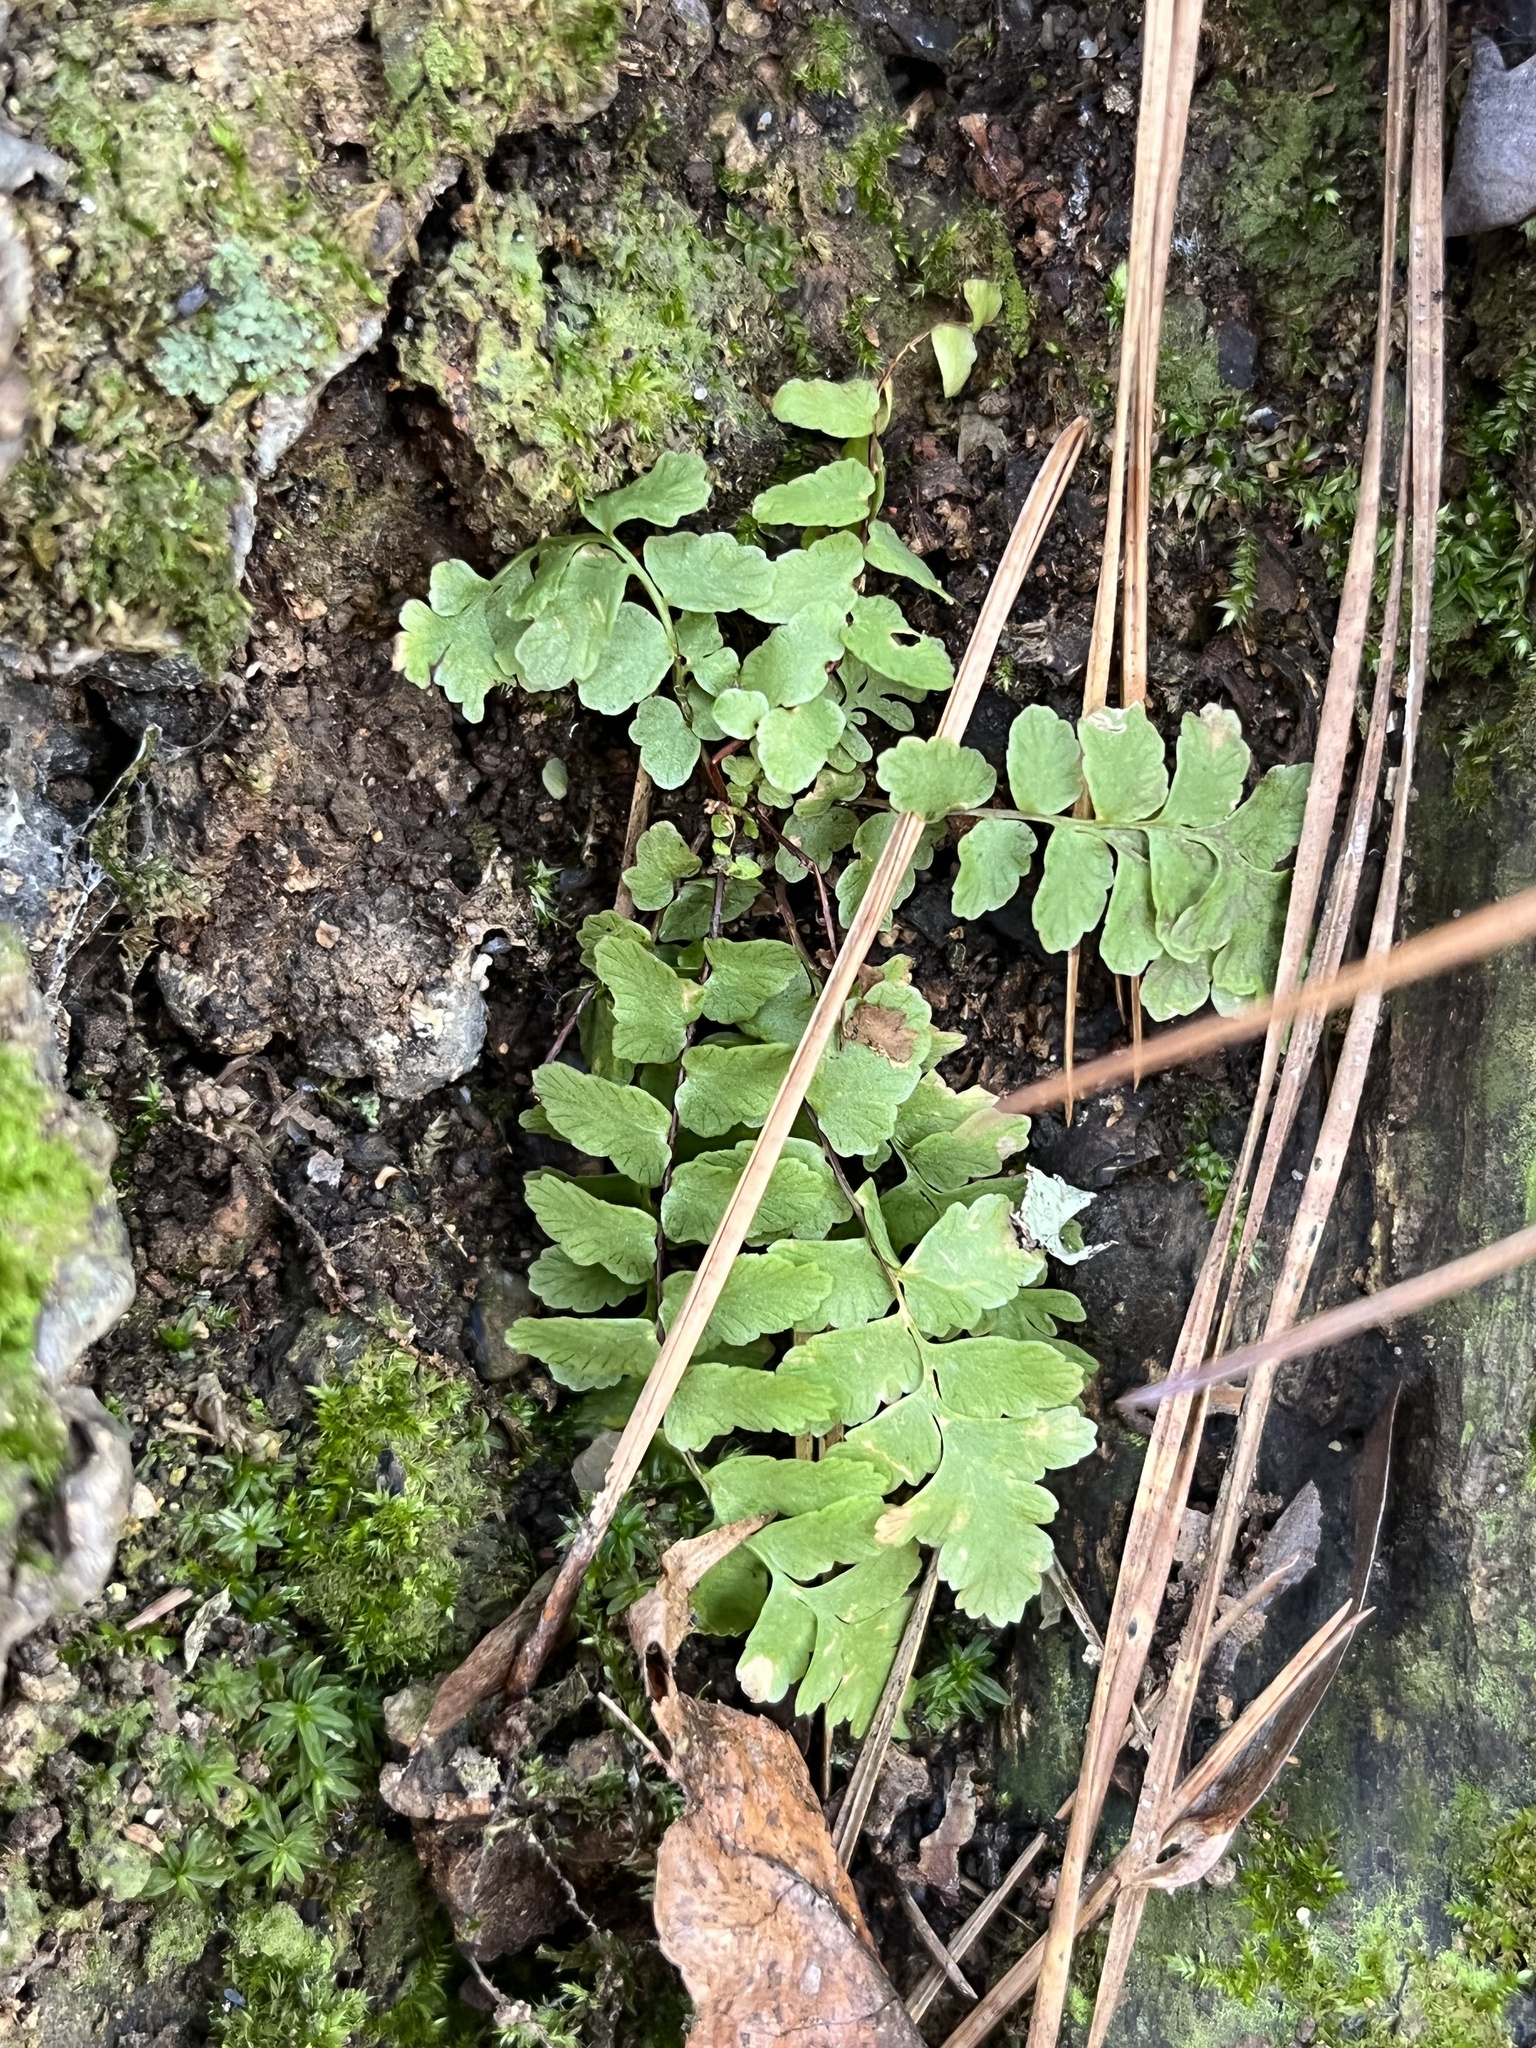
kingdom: Plantae
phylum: Tracheophyta
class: Polypodiopsida
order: Polypodiales
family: Aspleniaceae
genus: Asplenium
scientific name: Asplenium platyneuron
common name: Ebony spleenwort
